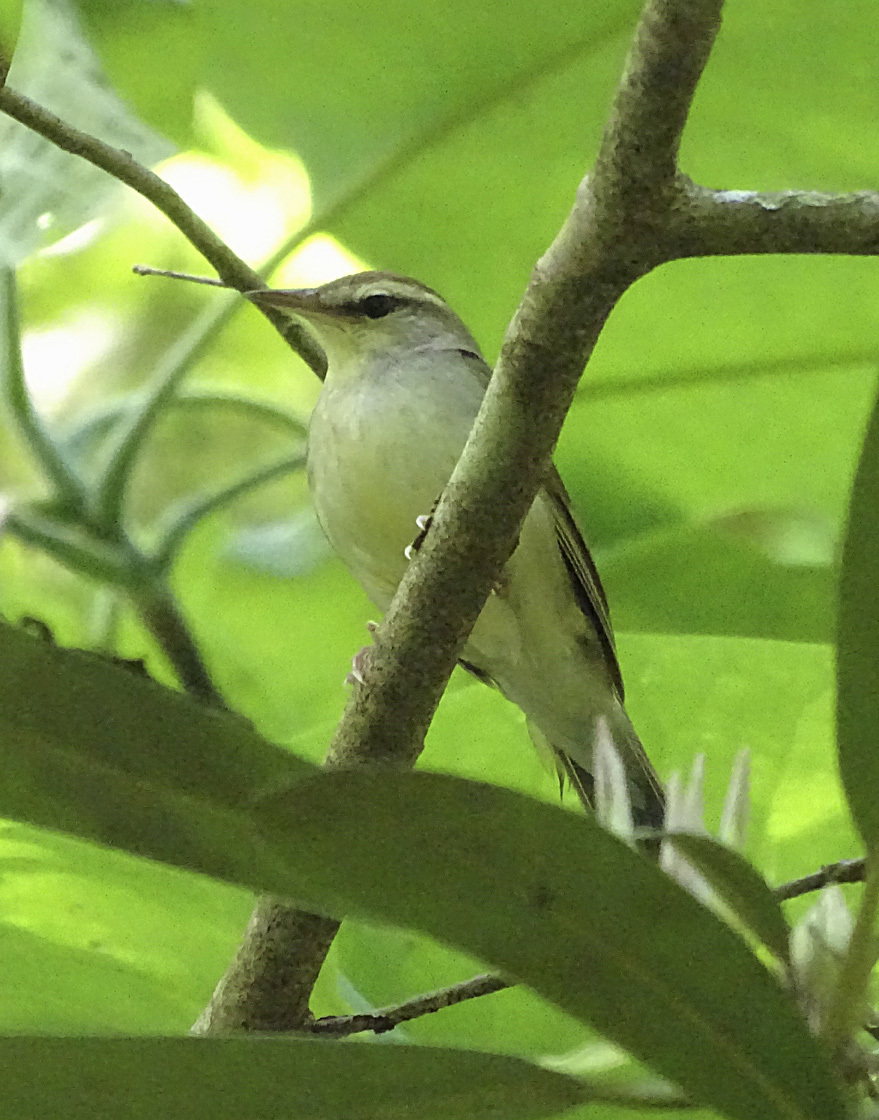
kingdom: Animalia
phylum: Chordata
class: Aves
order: Passeriformes
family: Parulidae
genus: Limnothlypis
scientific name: Limnothlypis swainsonii
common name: Swainson's warbler
